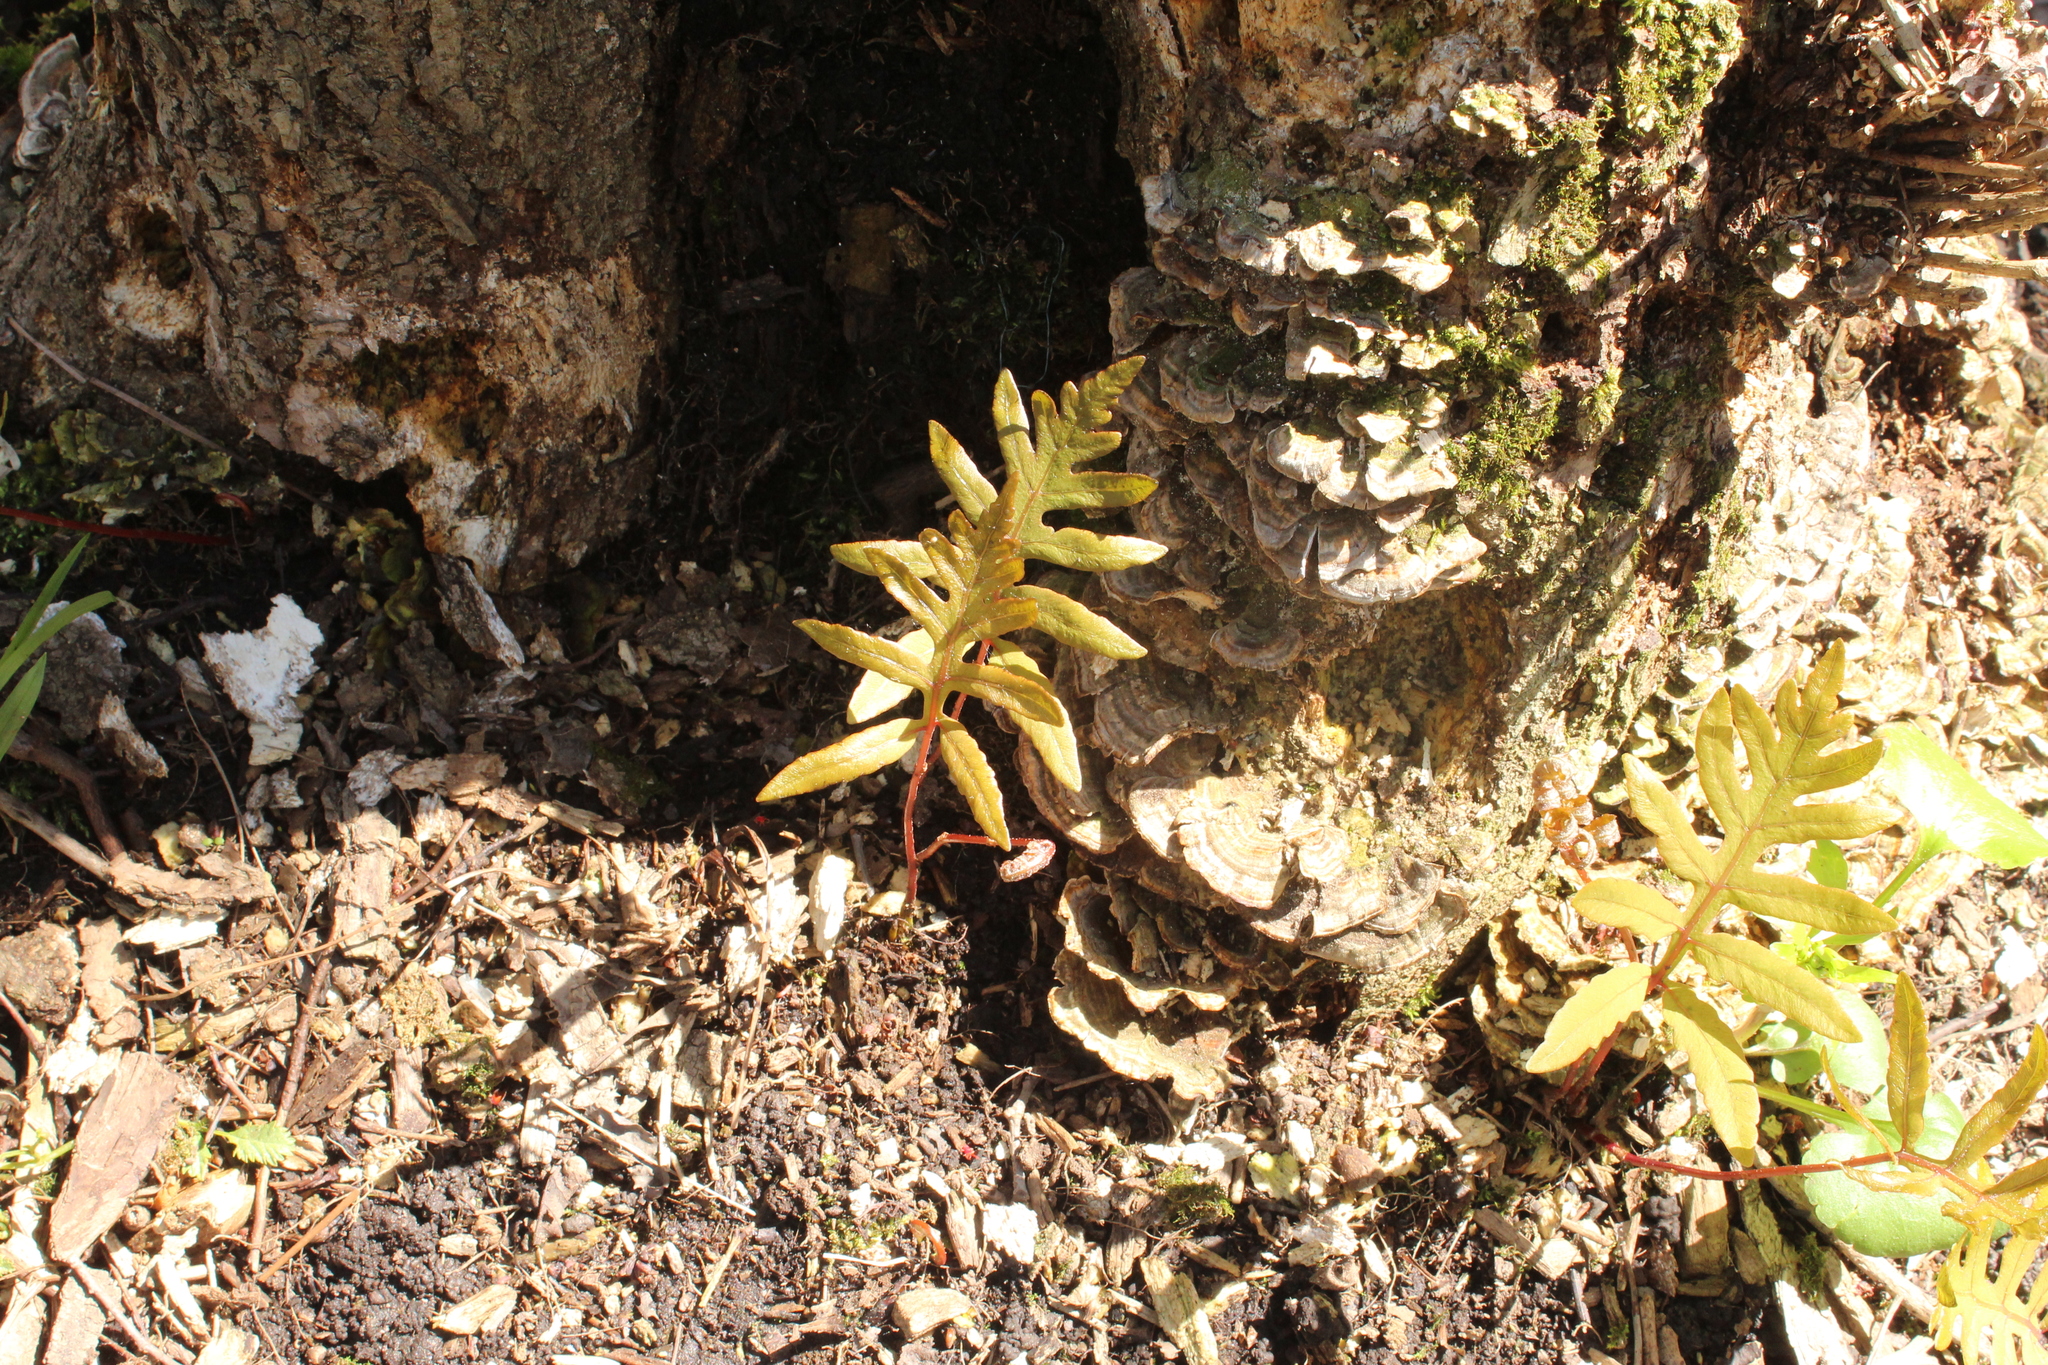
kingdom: Plantae
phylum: Tracheophyta
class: Polypodiopsida
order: Polypodiales
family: Onocleaceae
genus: Onoclea
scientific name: Onoclea sensibilis
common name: Sensitive fern
